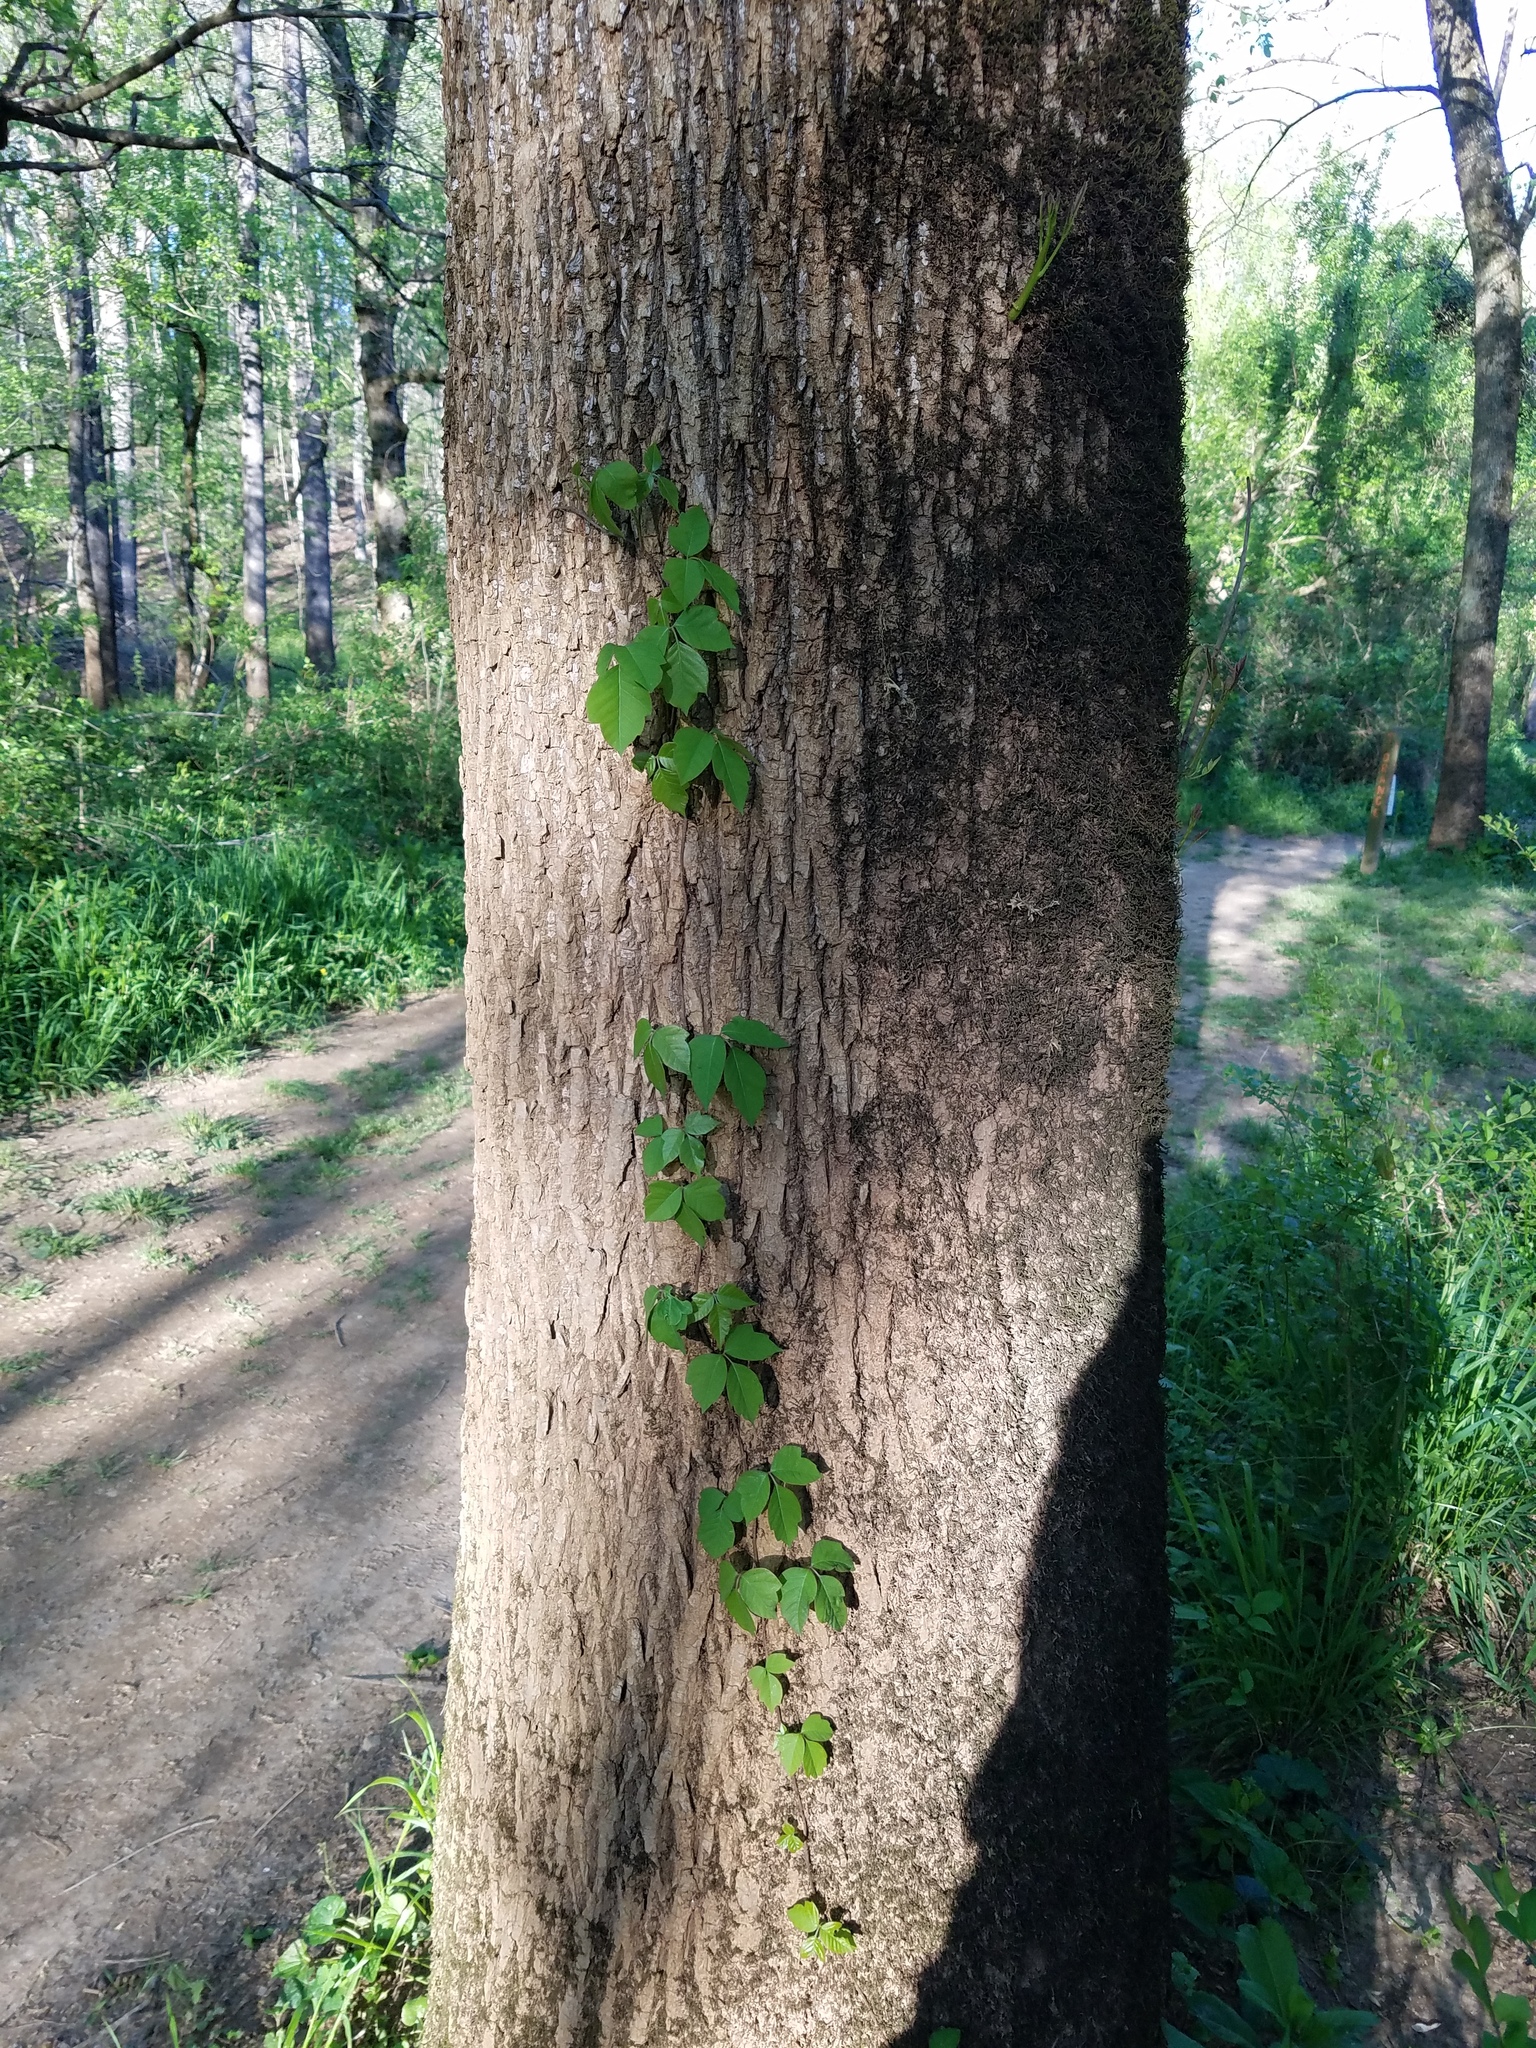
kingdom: Plantae
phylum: Tracheophyta
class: Magnoliopsida
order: Sapindales
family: Anacardiaceae
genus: Toxicodendron
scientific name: Toxicodendron radicans
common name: Poison ivy
